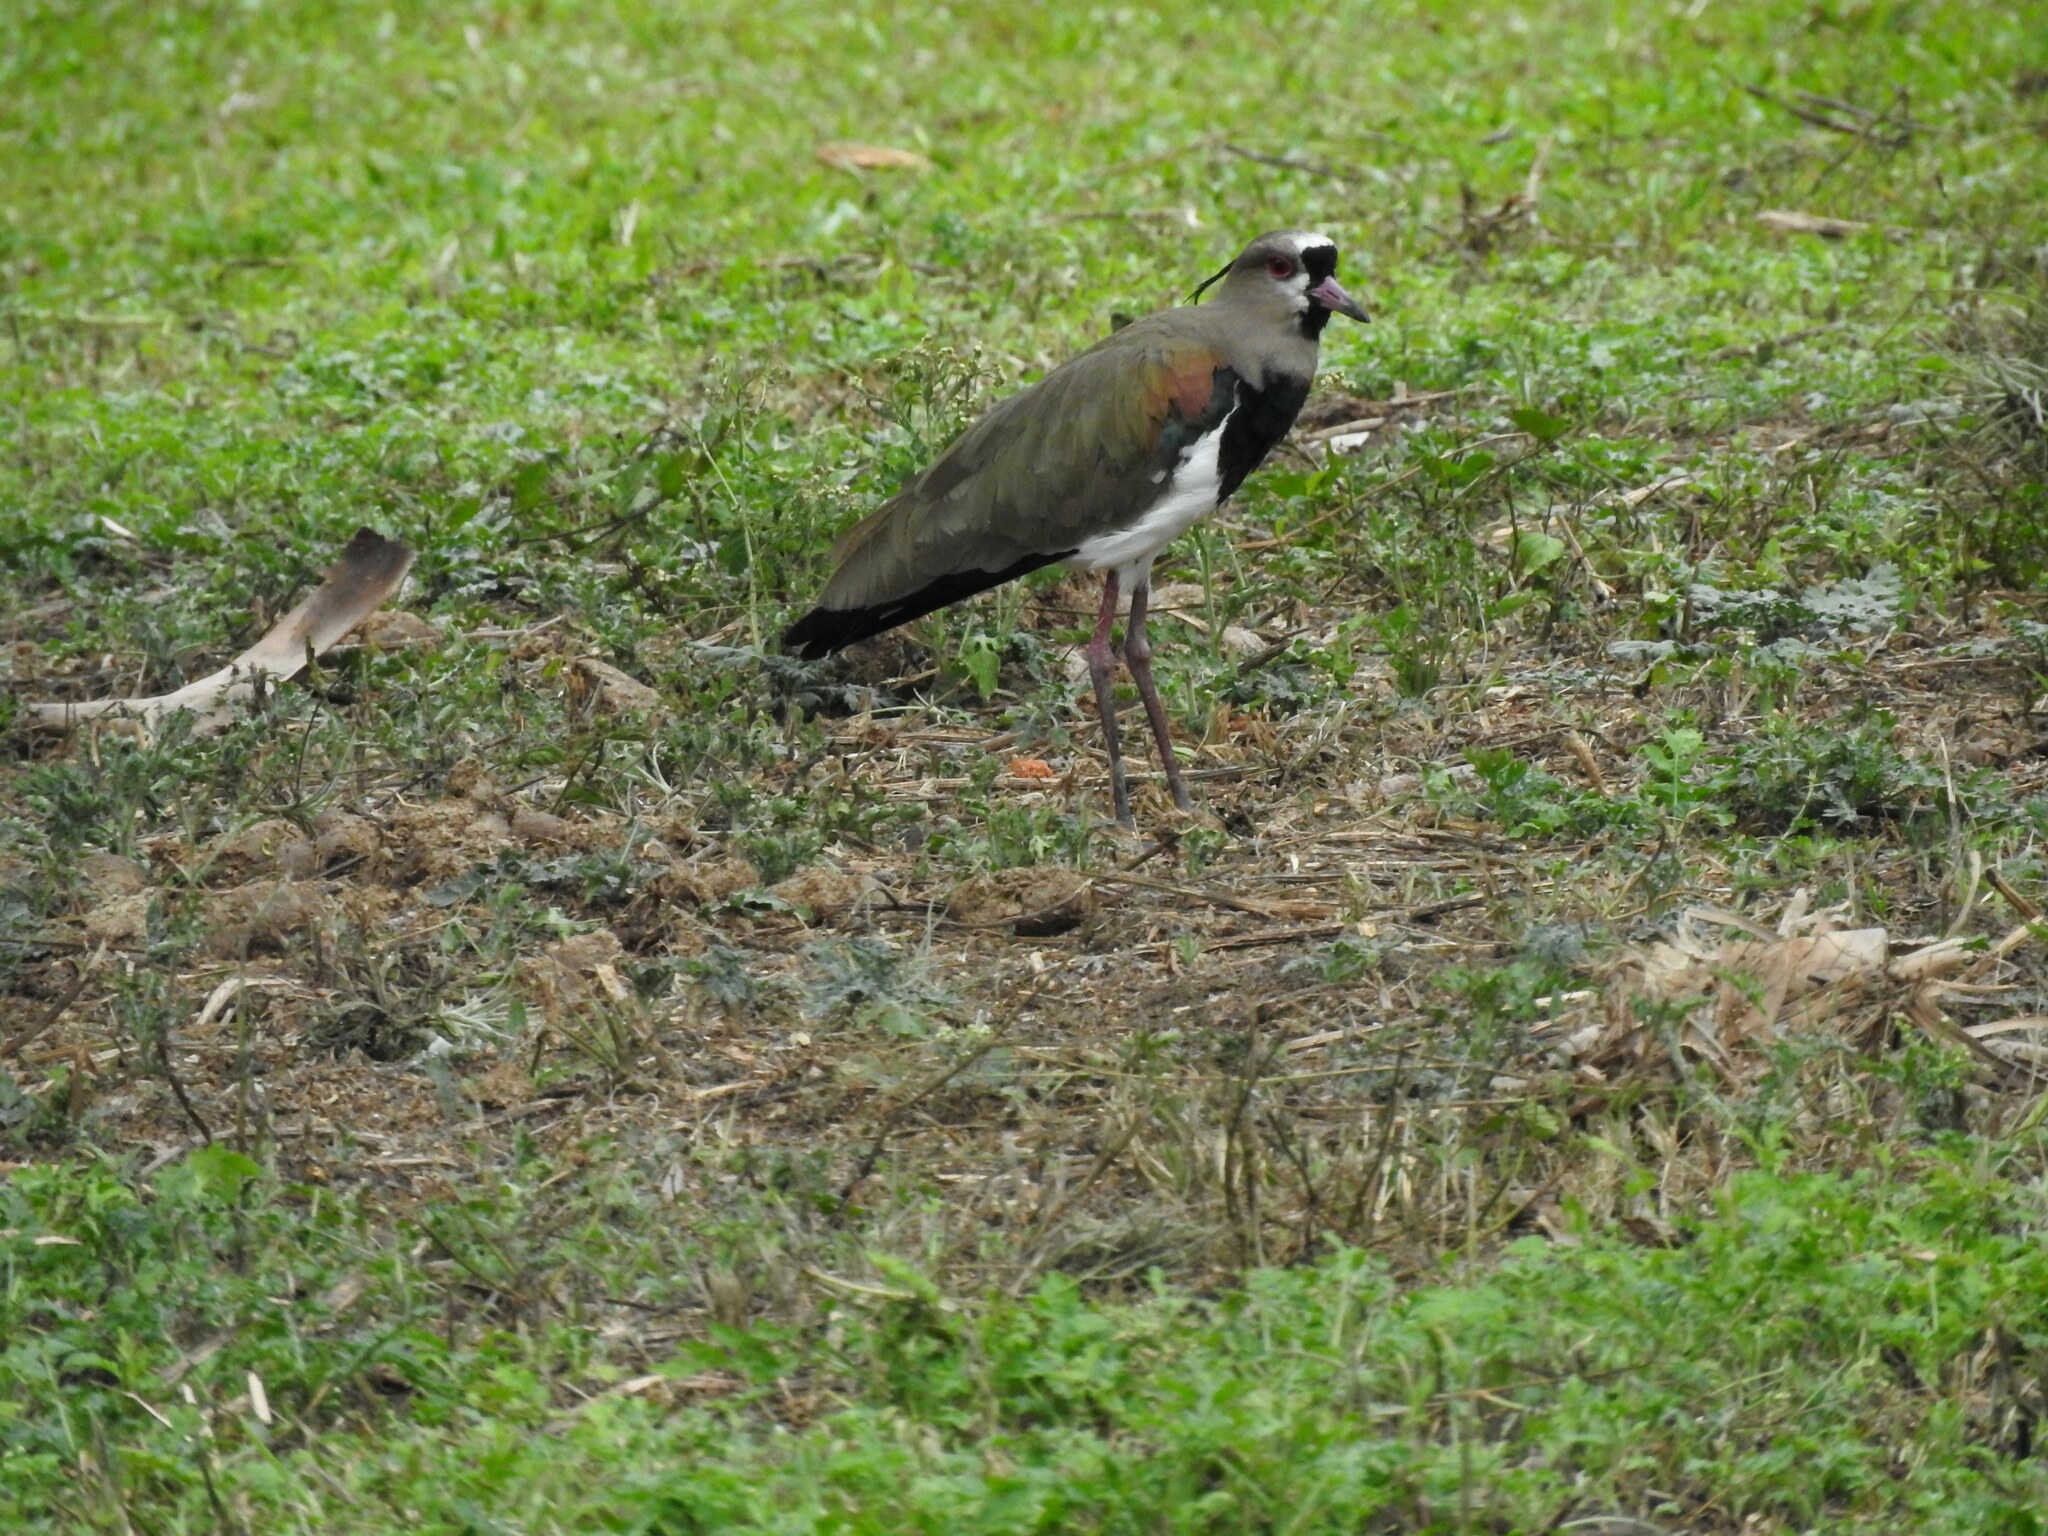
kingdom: Animalia
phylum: Chordata
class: Aves
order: Charadriiformes
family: Charadriidae
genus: Vanellus
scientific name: Vanellus chilensis
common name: Southern lapwing
